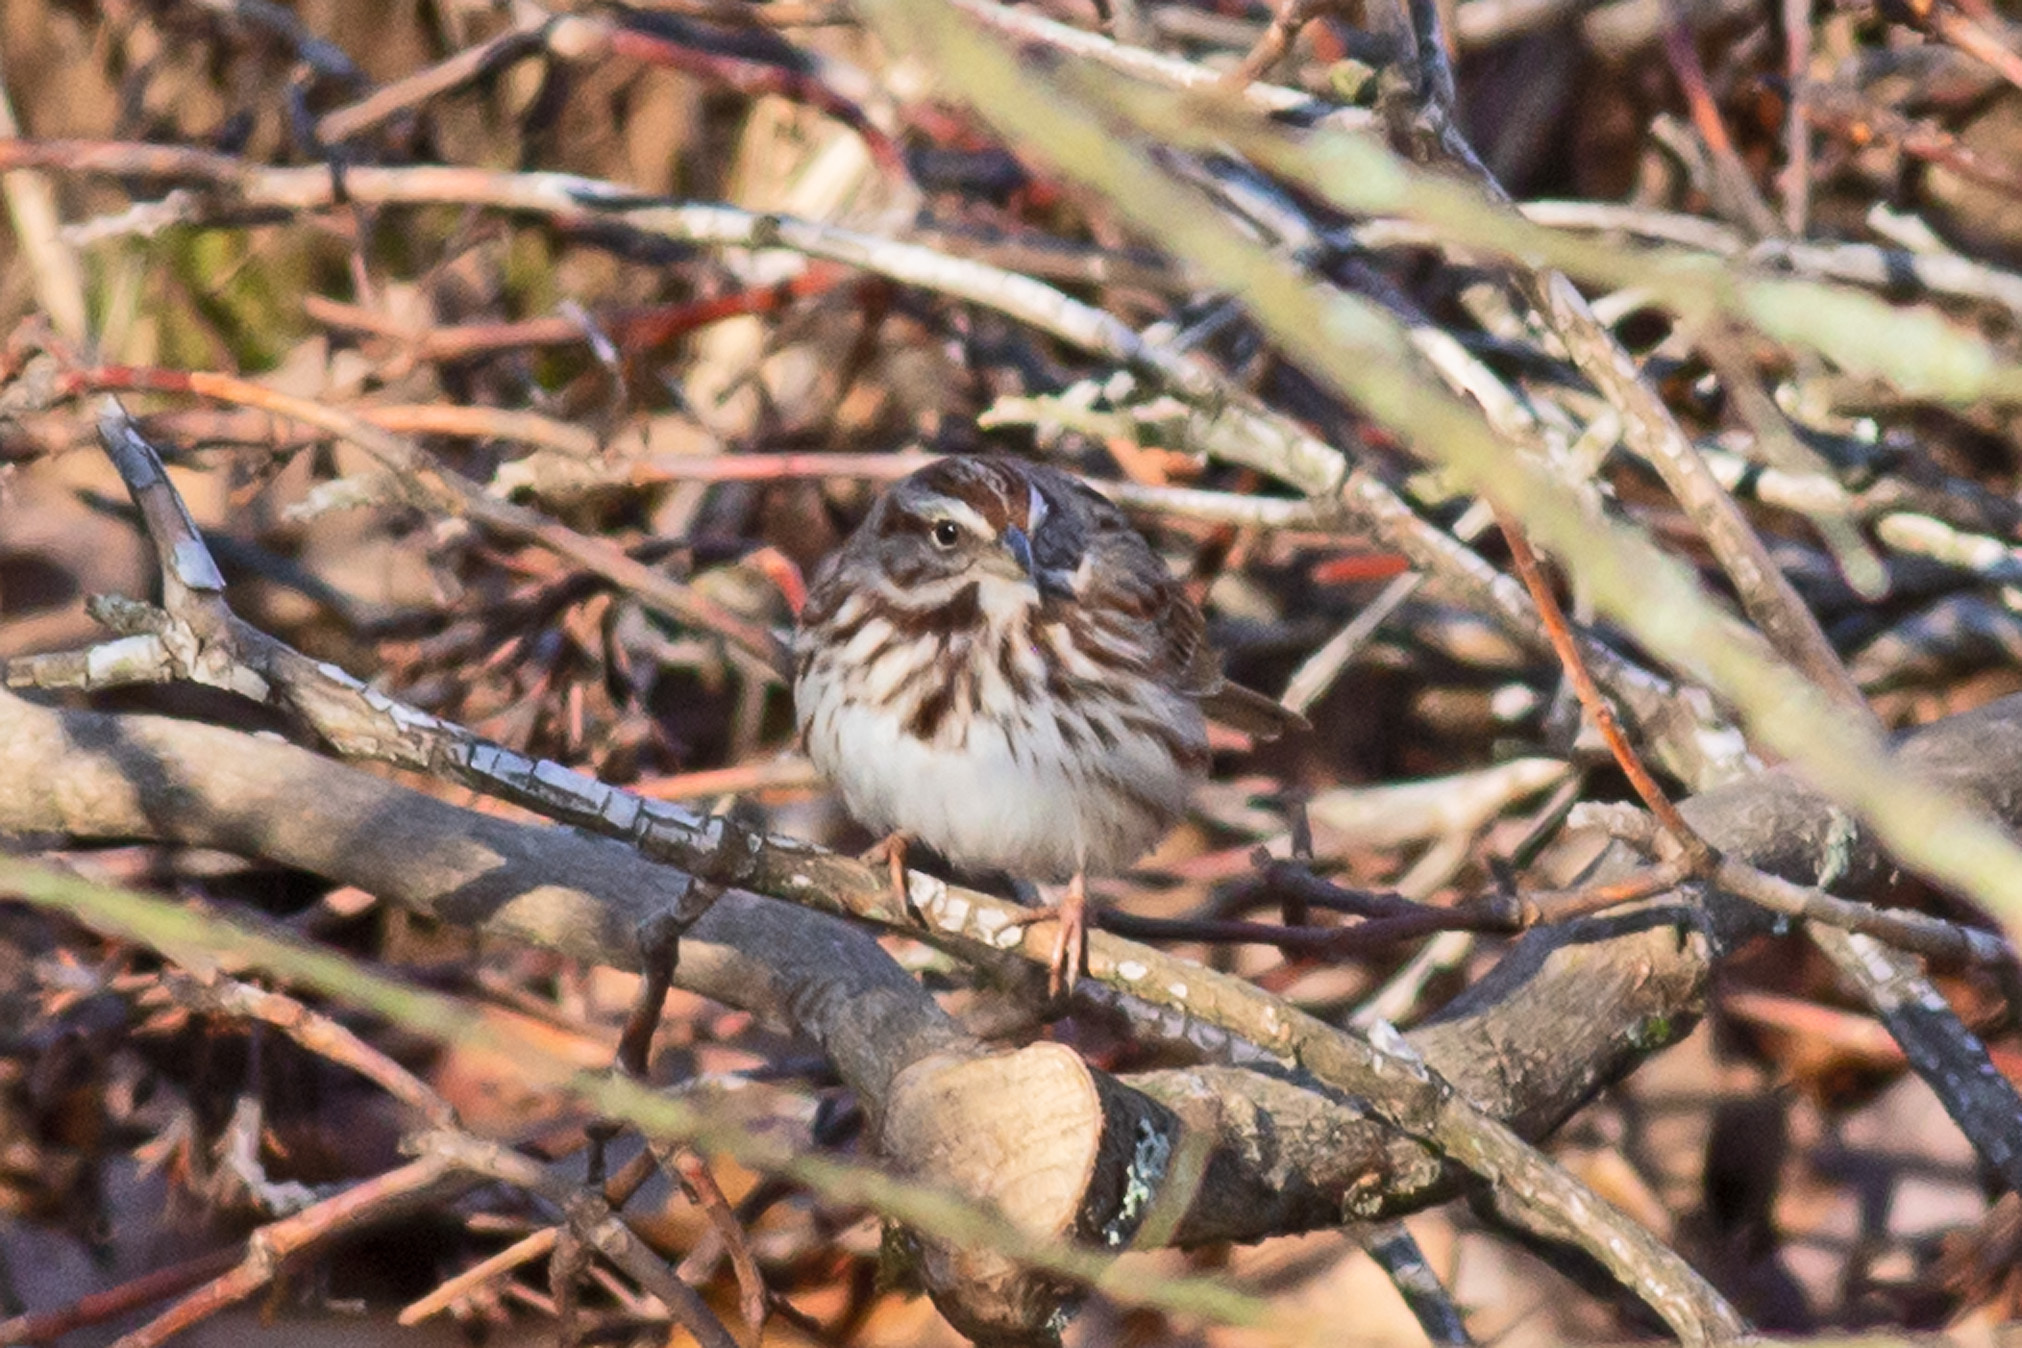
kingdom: Animalia
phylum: Chordata
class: Aves
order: Passeriformes
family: Passerellidae
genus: Melospiza
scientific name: Melospiza melodia
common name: Song sparrow
